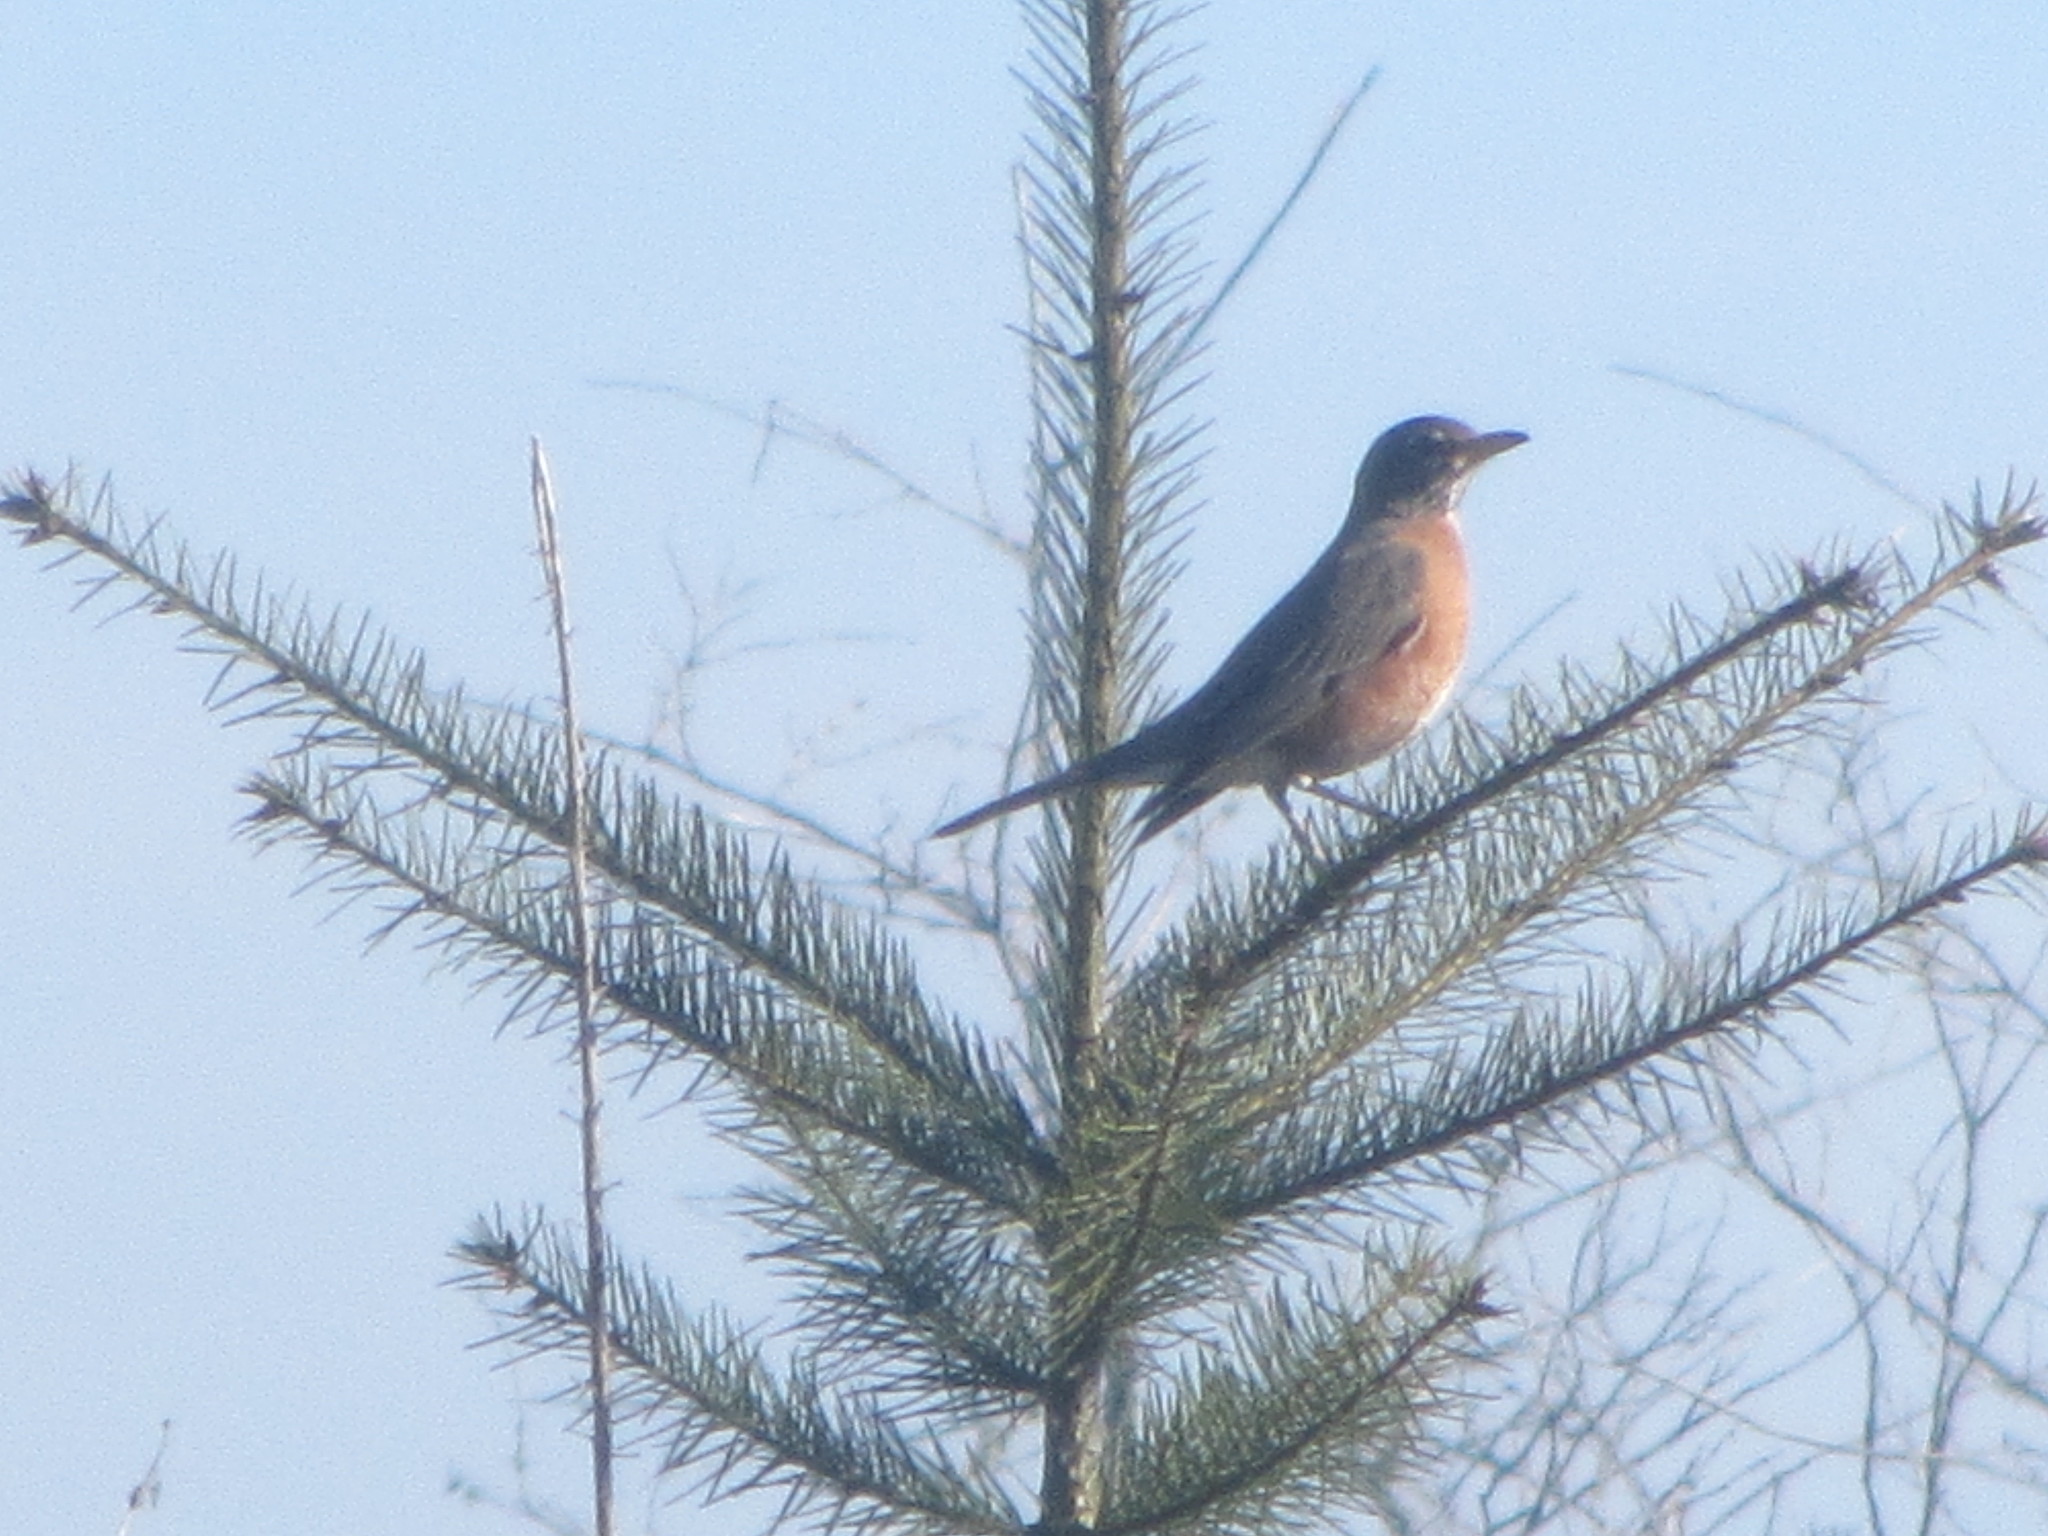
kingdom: Animalia
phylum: Chordata
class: Aves
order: Passeriformes
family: Turdidae
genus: Turdus
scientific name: Turdus migratorius
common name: American robin
